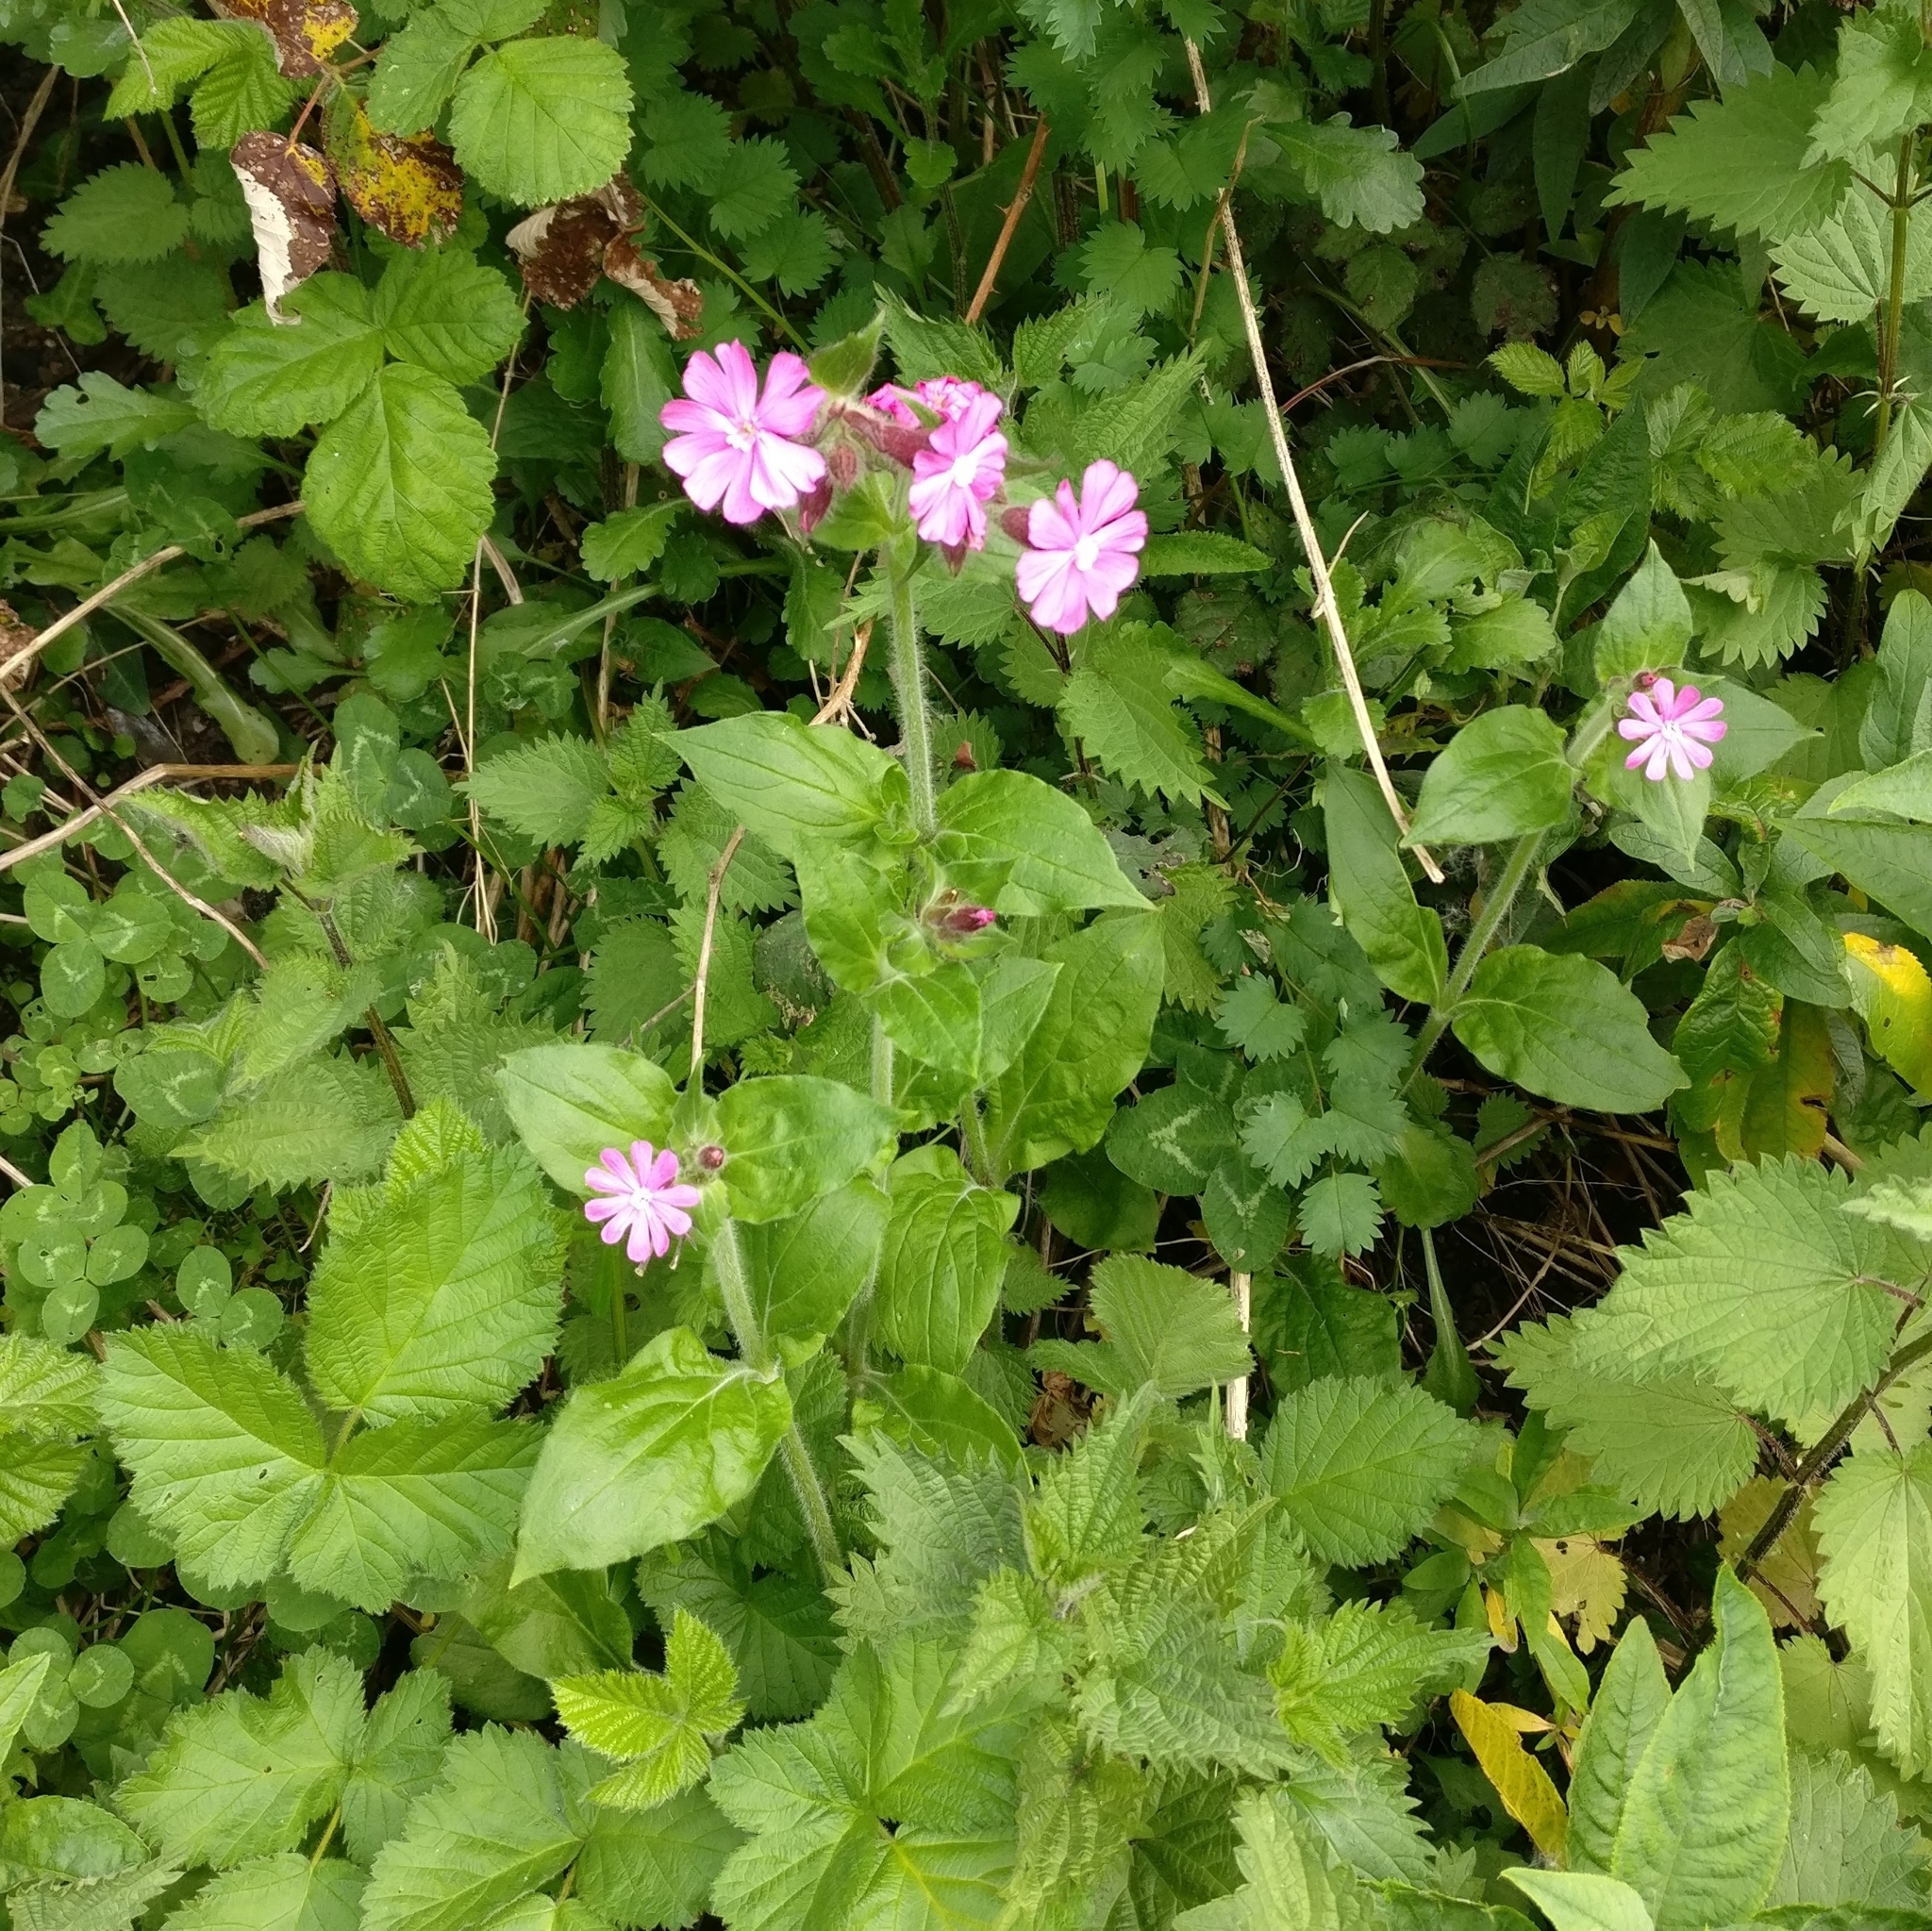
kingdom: Plantae
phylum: Tracheophyta
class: Magnoliopsida
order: Caryophyllales
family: Caryophyllaceae
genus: Silene
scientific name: Silene dioica
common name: Red campion
